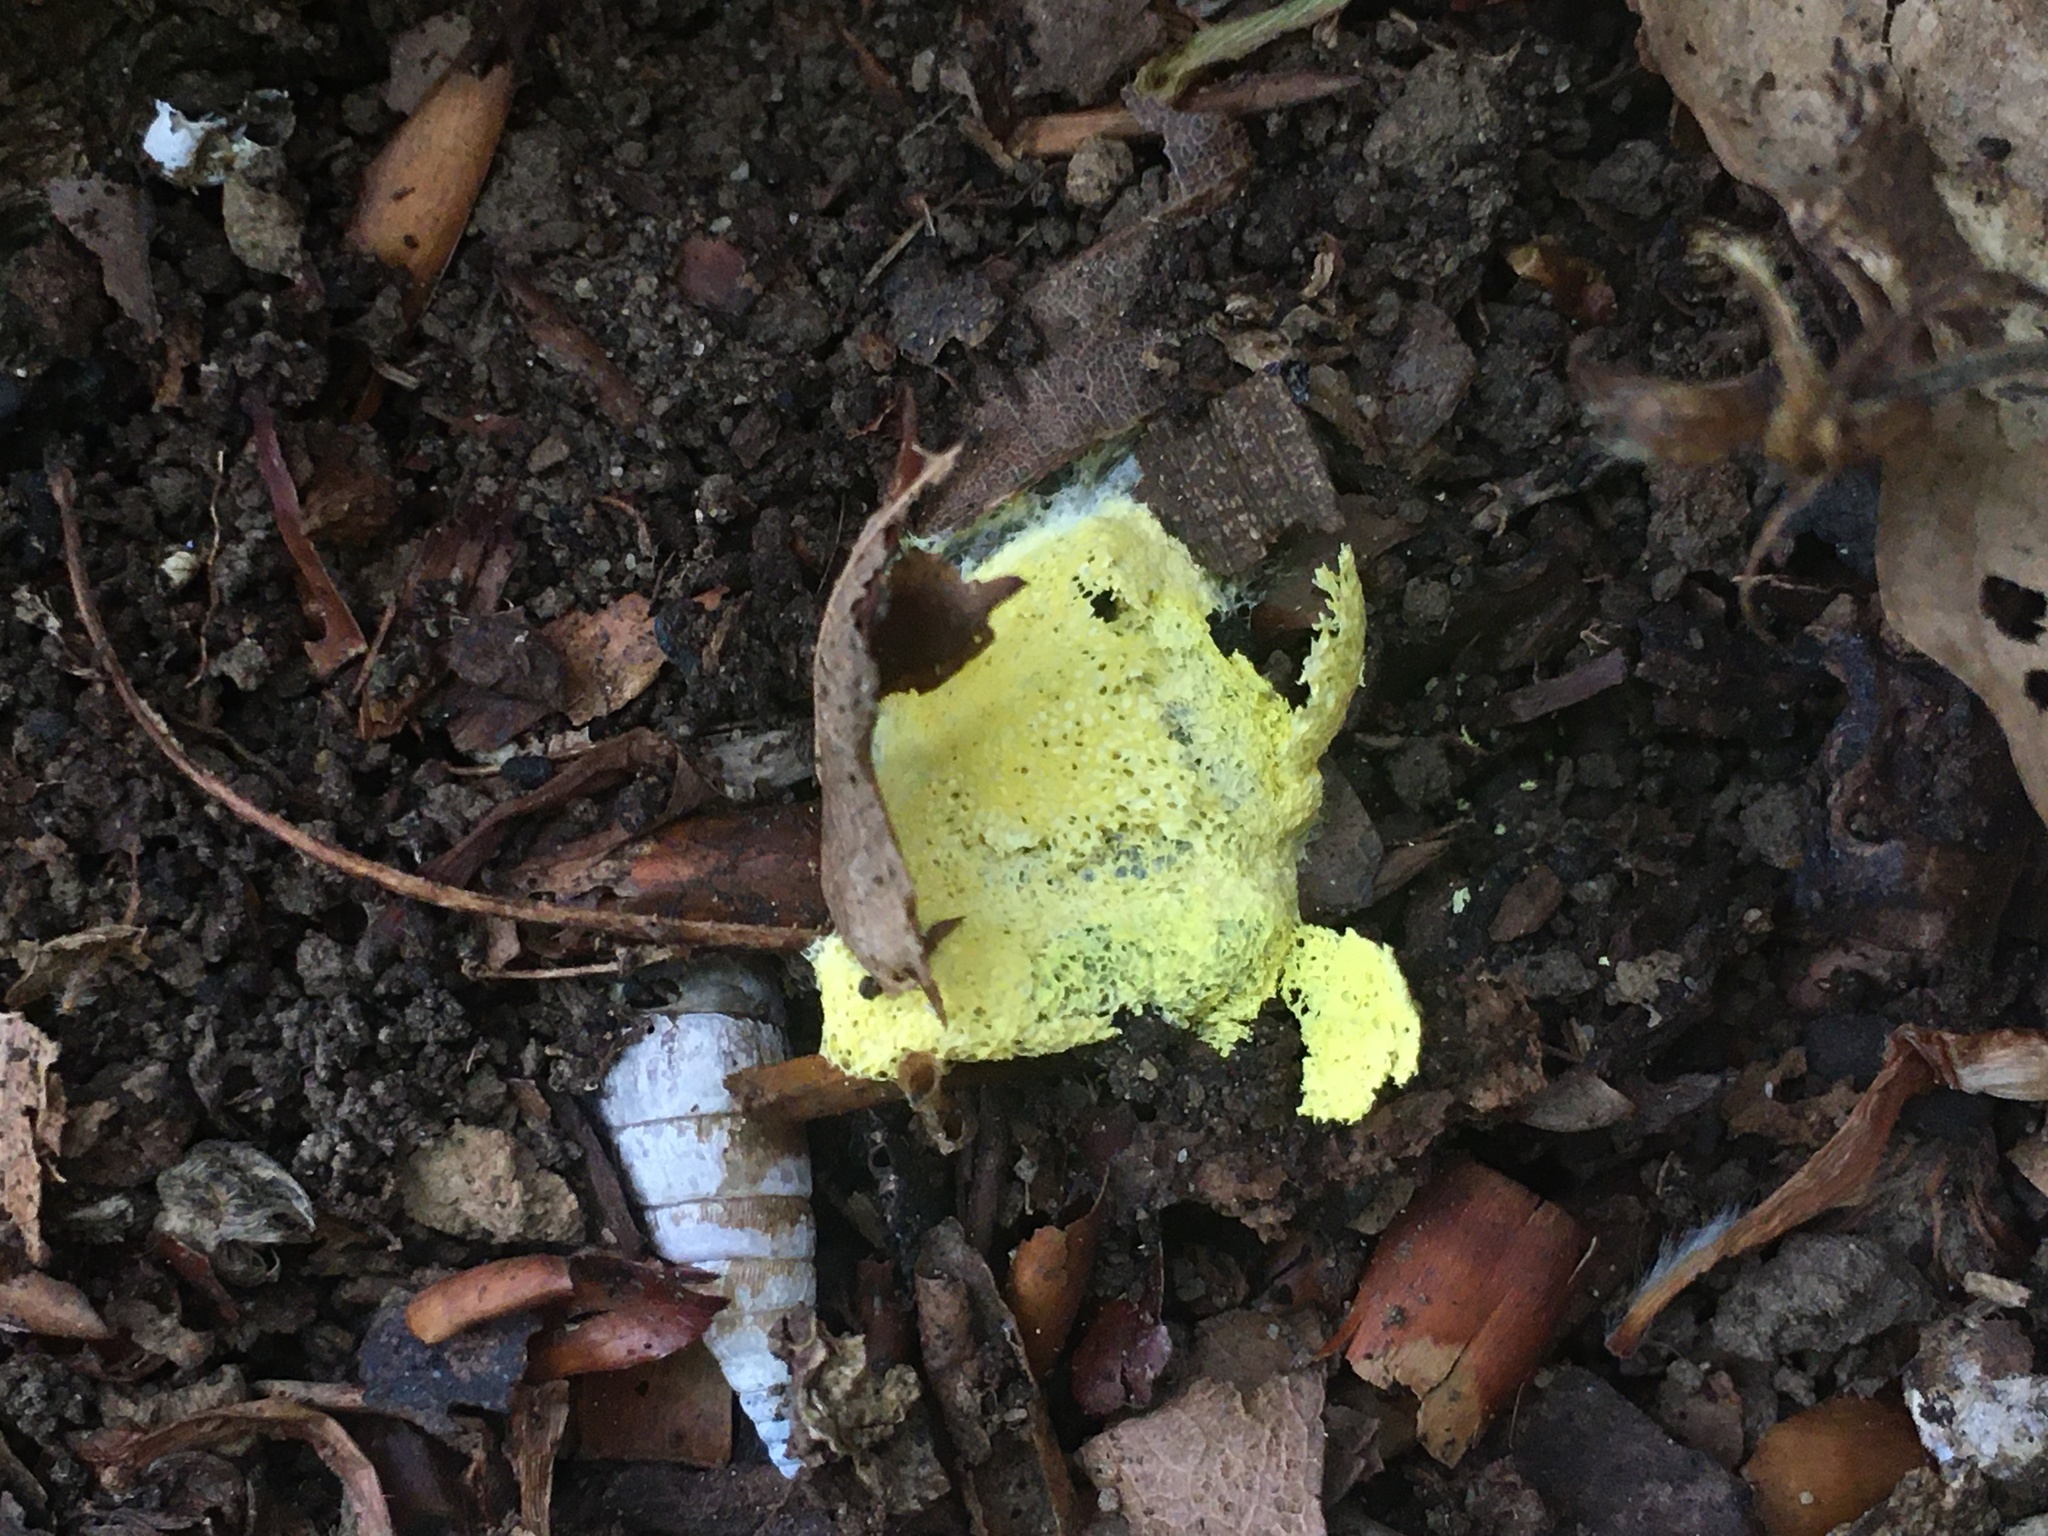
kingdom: Protozoa
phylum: Mycetozoa
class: Myxomycetes
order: Physarales
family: Physaraceae
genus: Fuligo
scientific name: Fuligo septica
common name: Dog vomit slime mold
